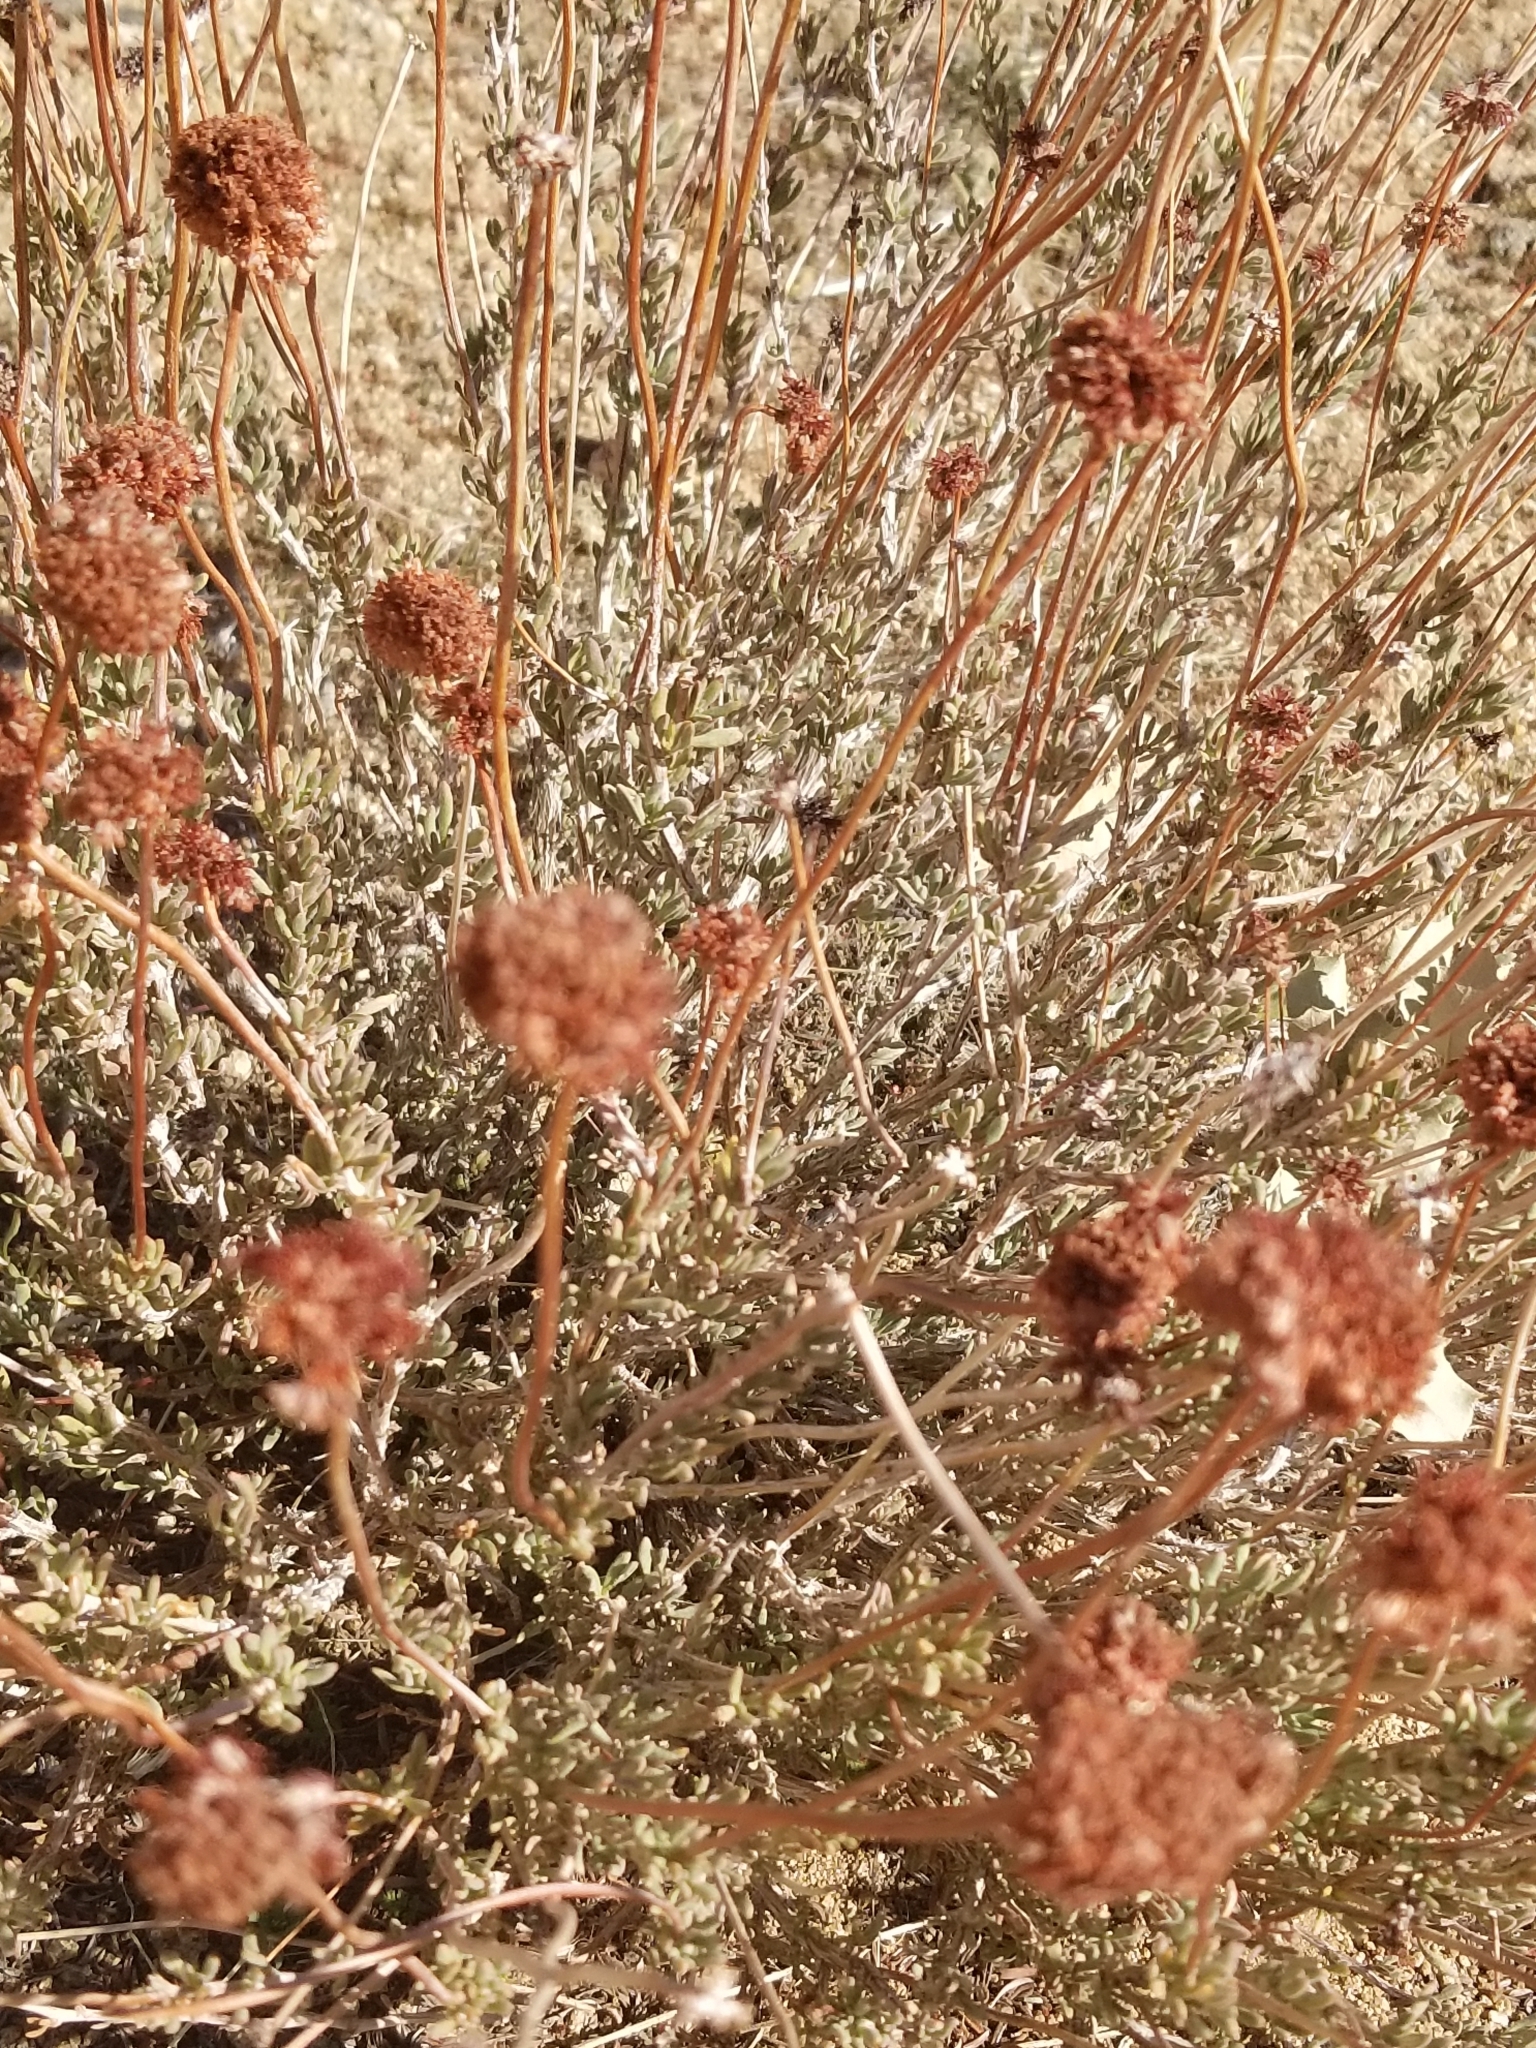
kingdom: Plantae
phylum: Tracheophyta
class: Magnoliopsida
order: Caryophyllales
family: Polygonaceae
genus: Eriogonum
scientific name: Eriogonum fasciculatum
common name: California wild buckwheat
